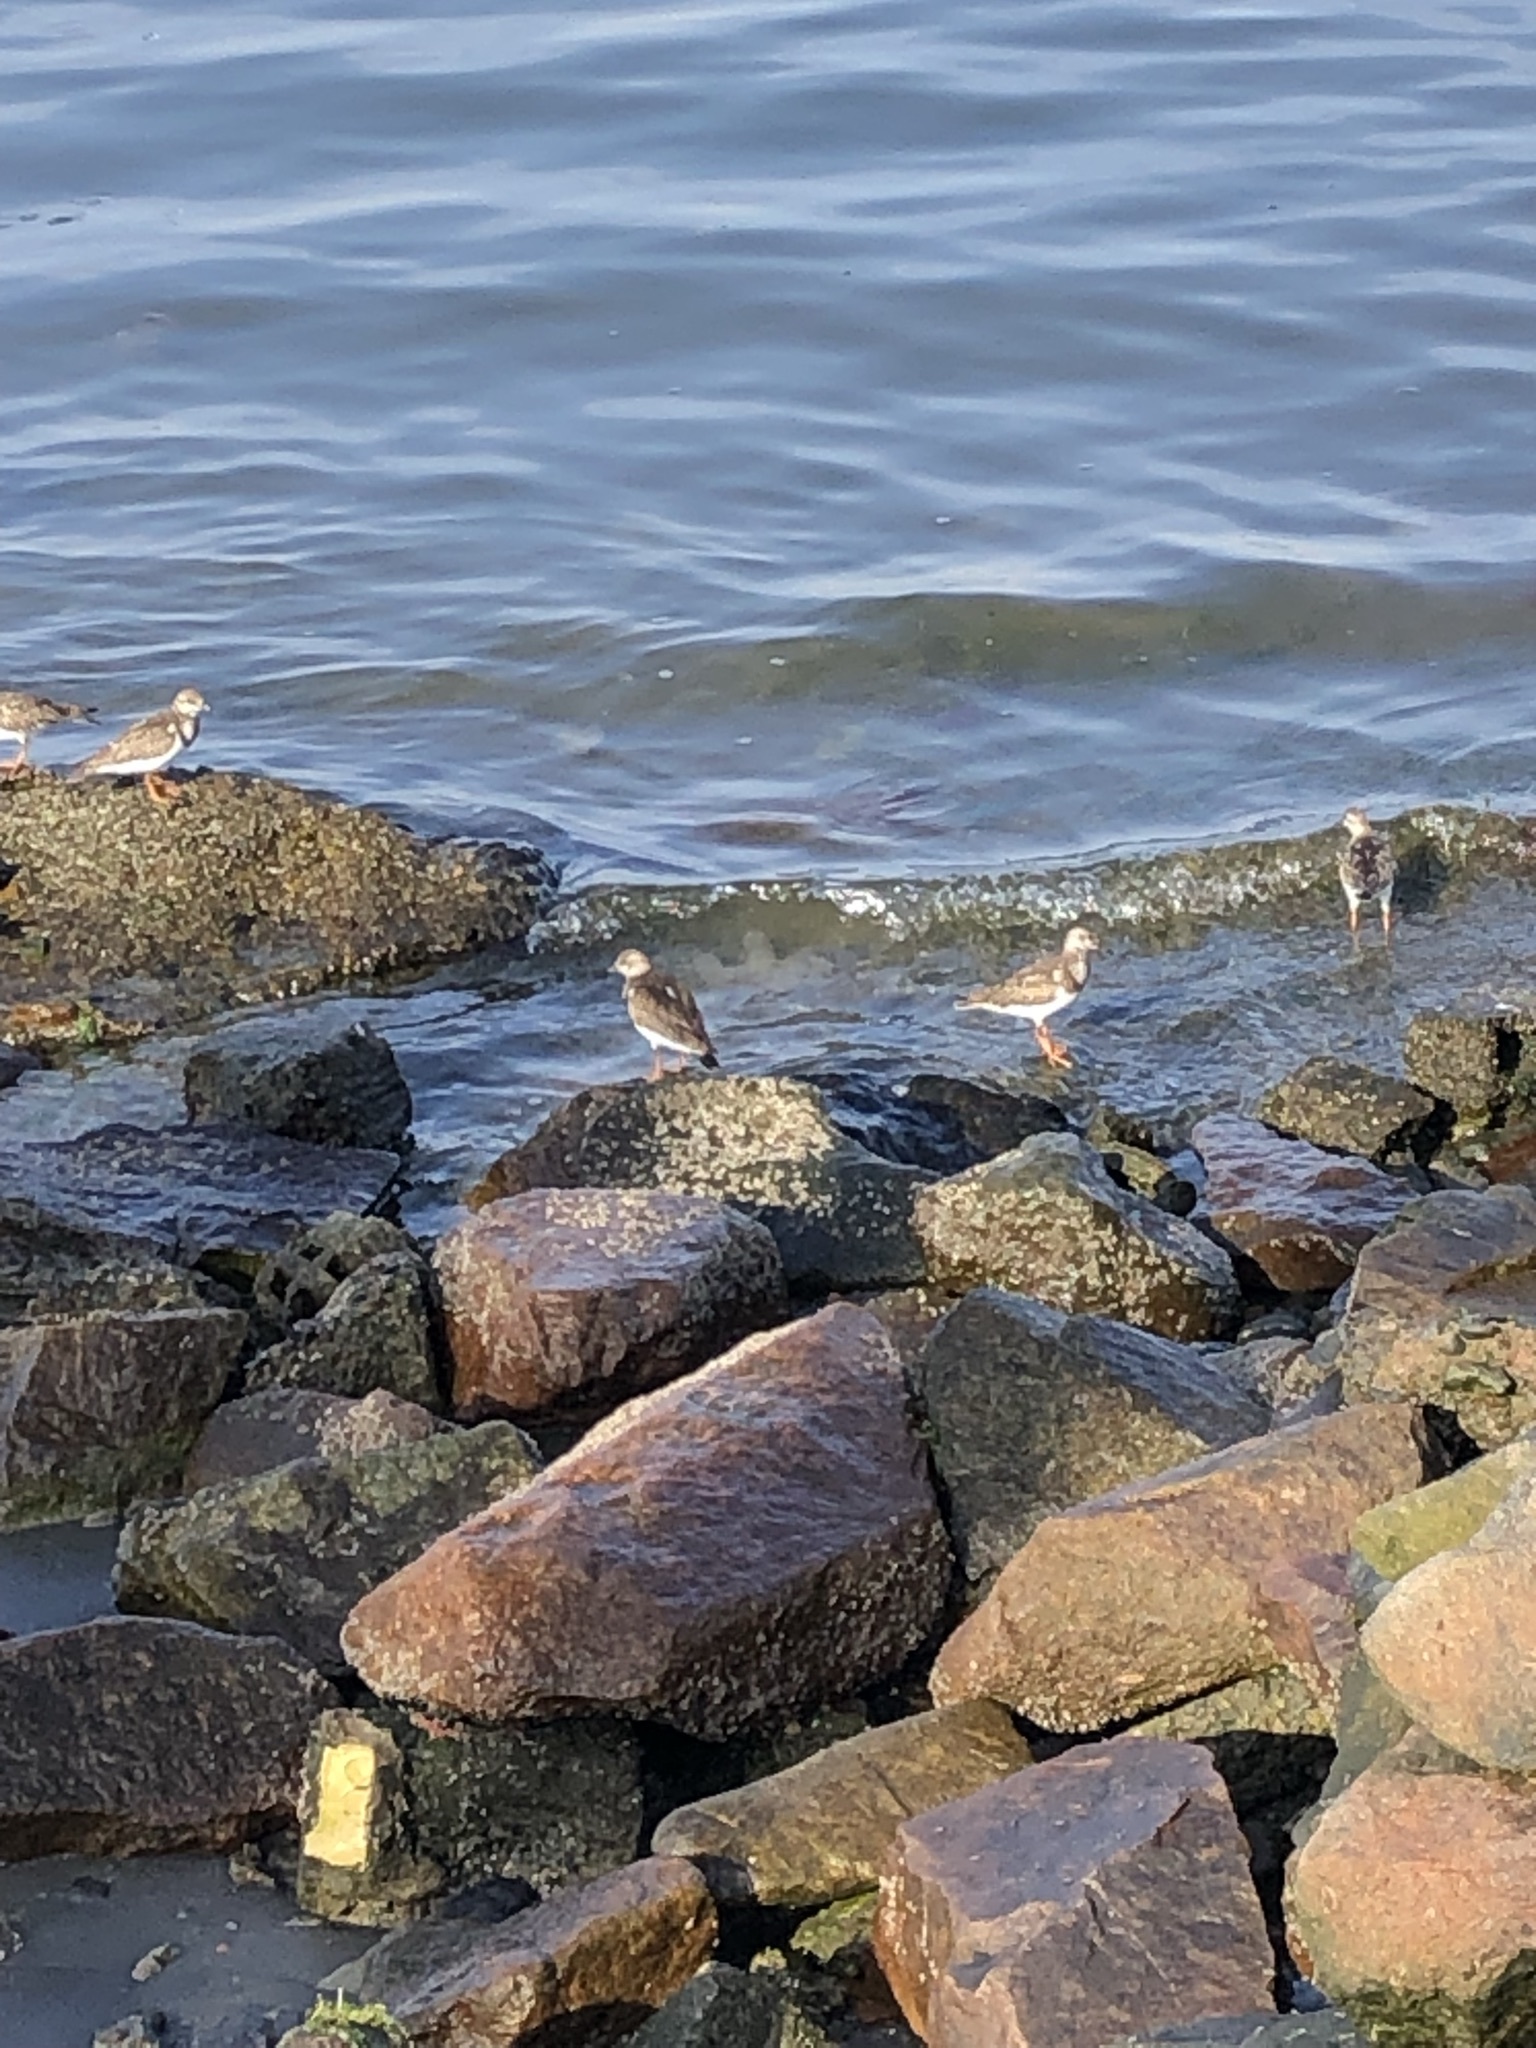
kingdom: Animalia
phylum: Chordata
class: Aves
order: Charadriiformes
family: Scolopacidae
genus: Arenaria
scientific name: Arenaria interpres
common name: Ruddy turnstone
